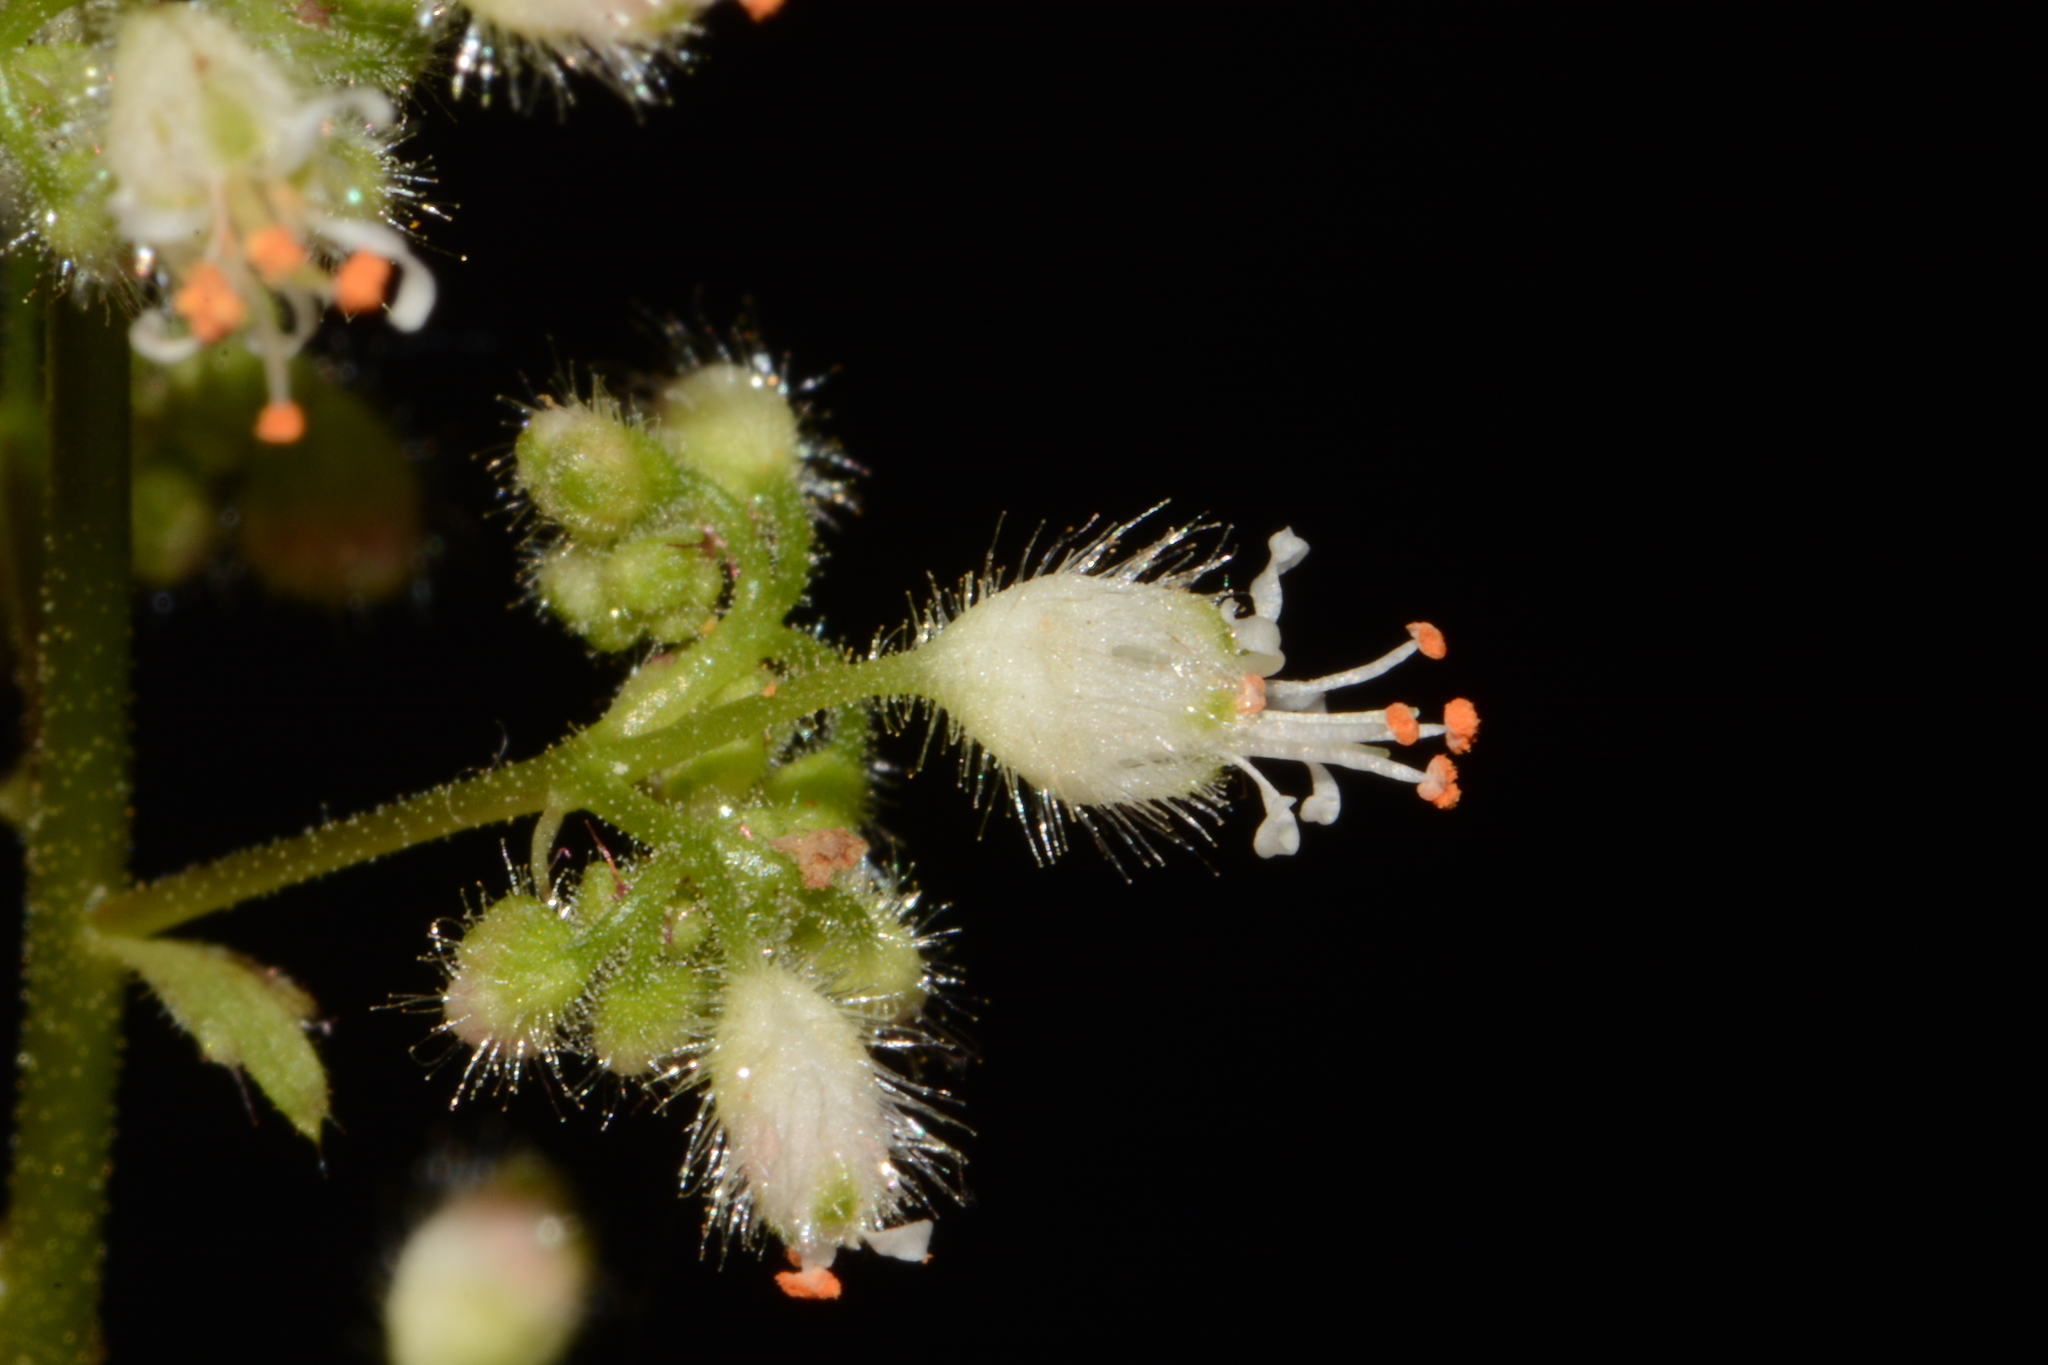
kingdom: Plantae
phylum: Tracheophyta
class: Magnoliopsida
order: Saxifragales
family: Saxifragaceae
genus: Heuchera
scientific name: Heuchera villosa
